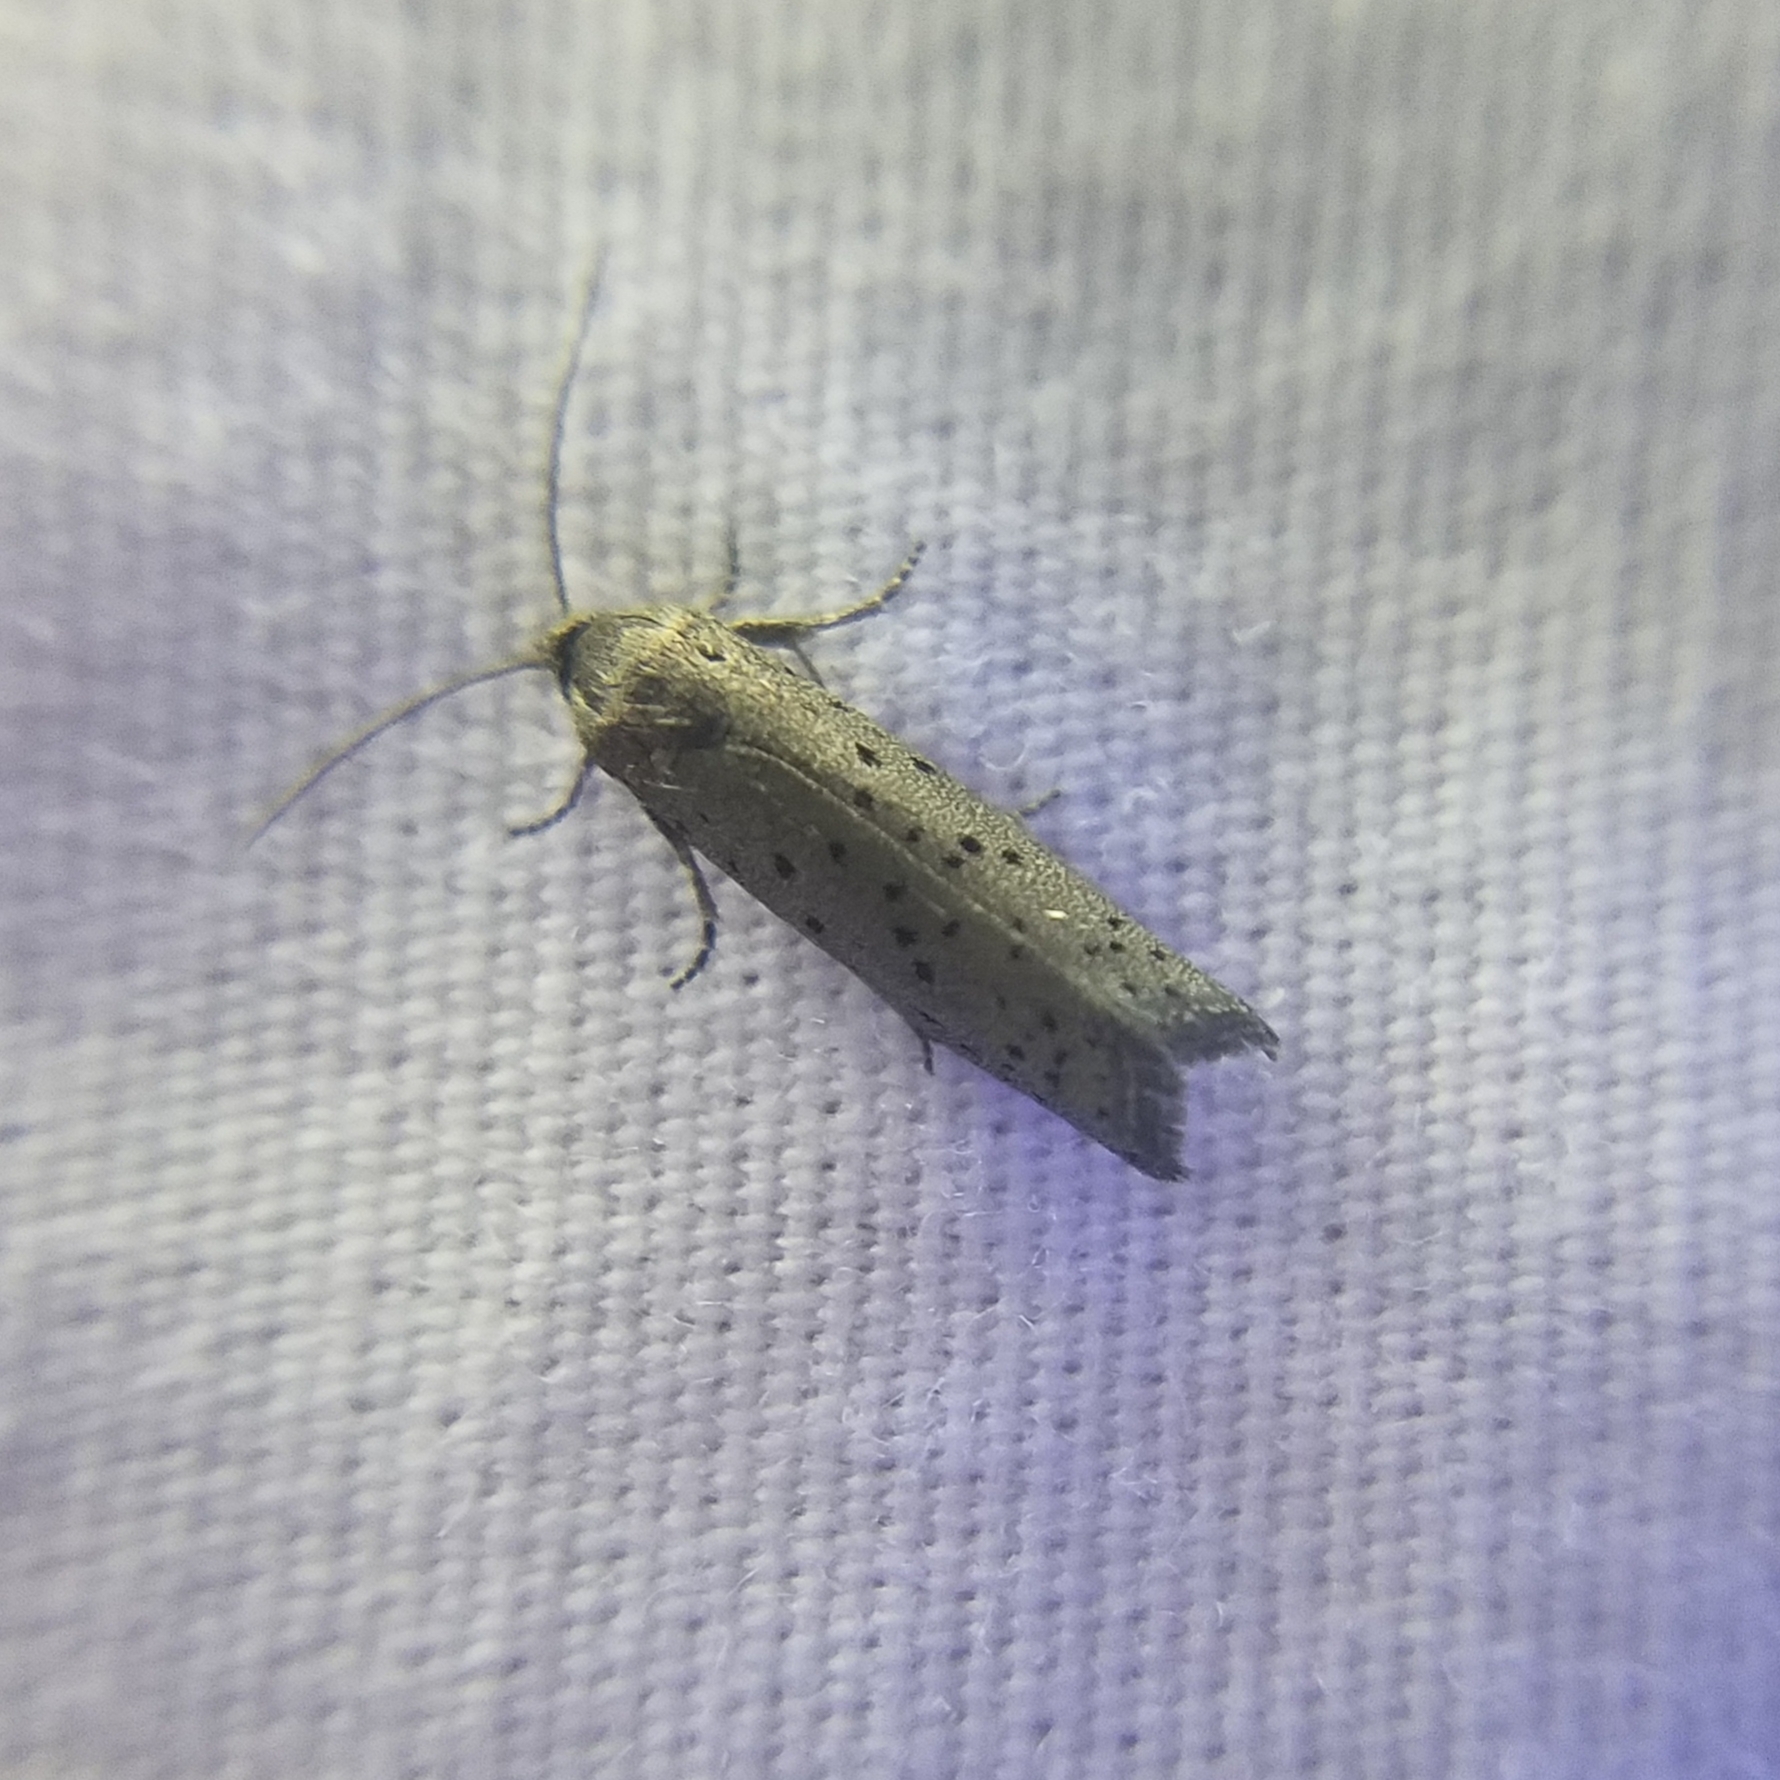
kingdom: Animalia
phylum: Arthropoda
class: Insecta
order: Lepidoptera
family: Galacticidae
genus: Homadaula
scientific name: Homadaula anisocentra
